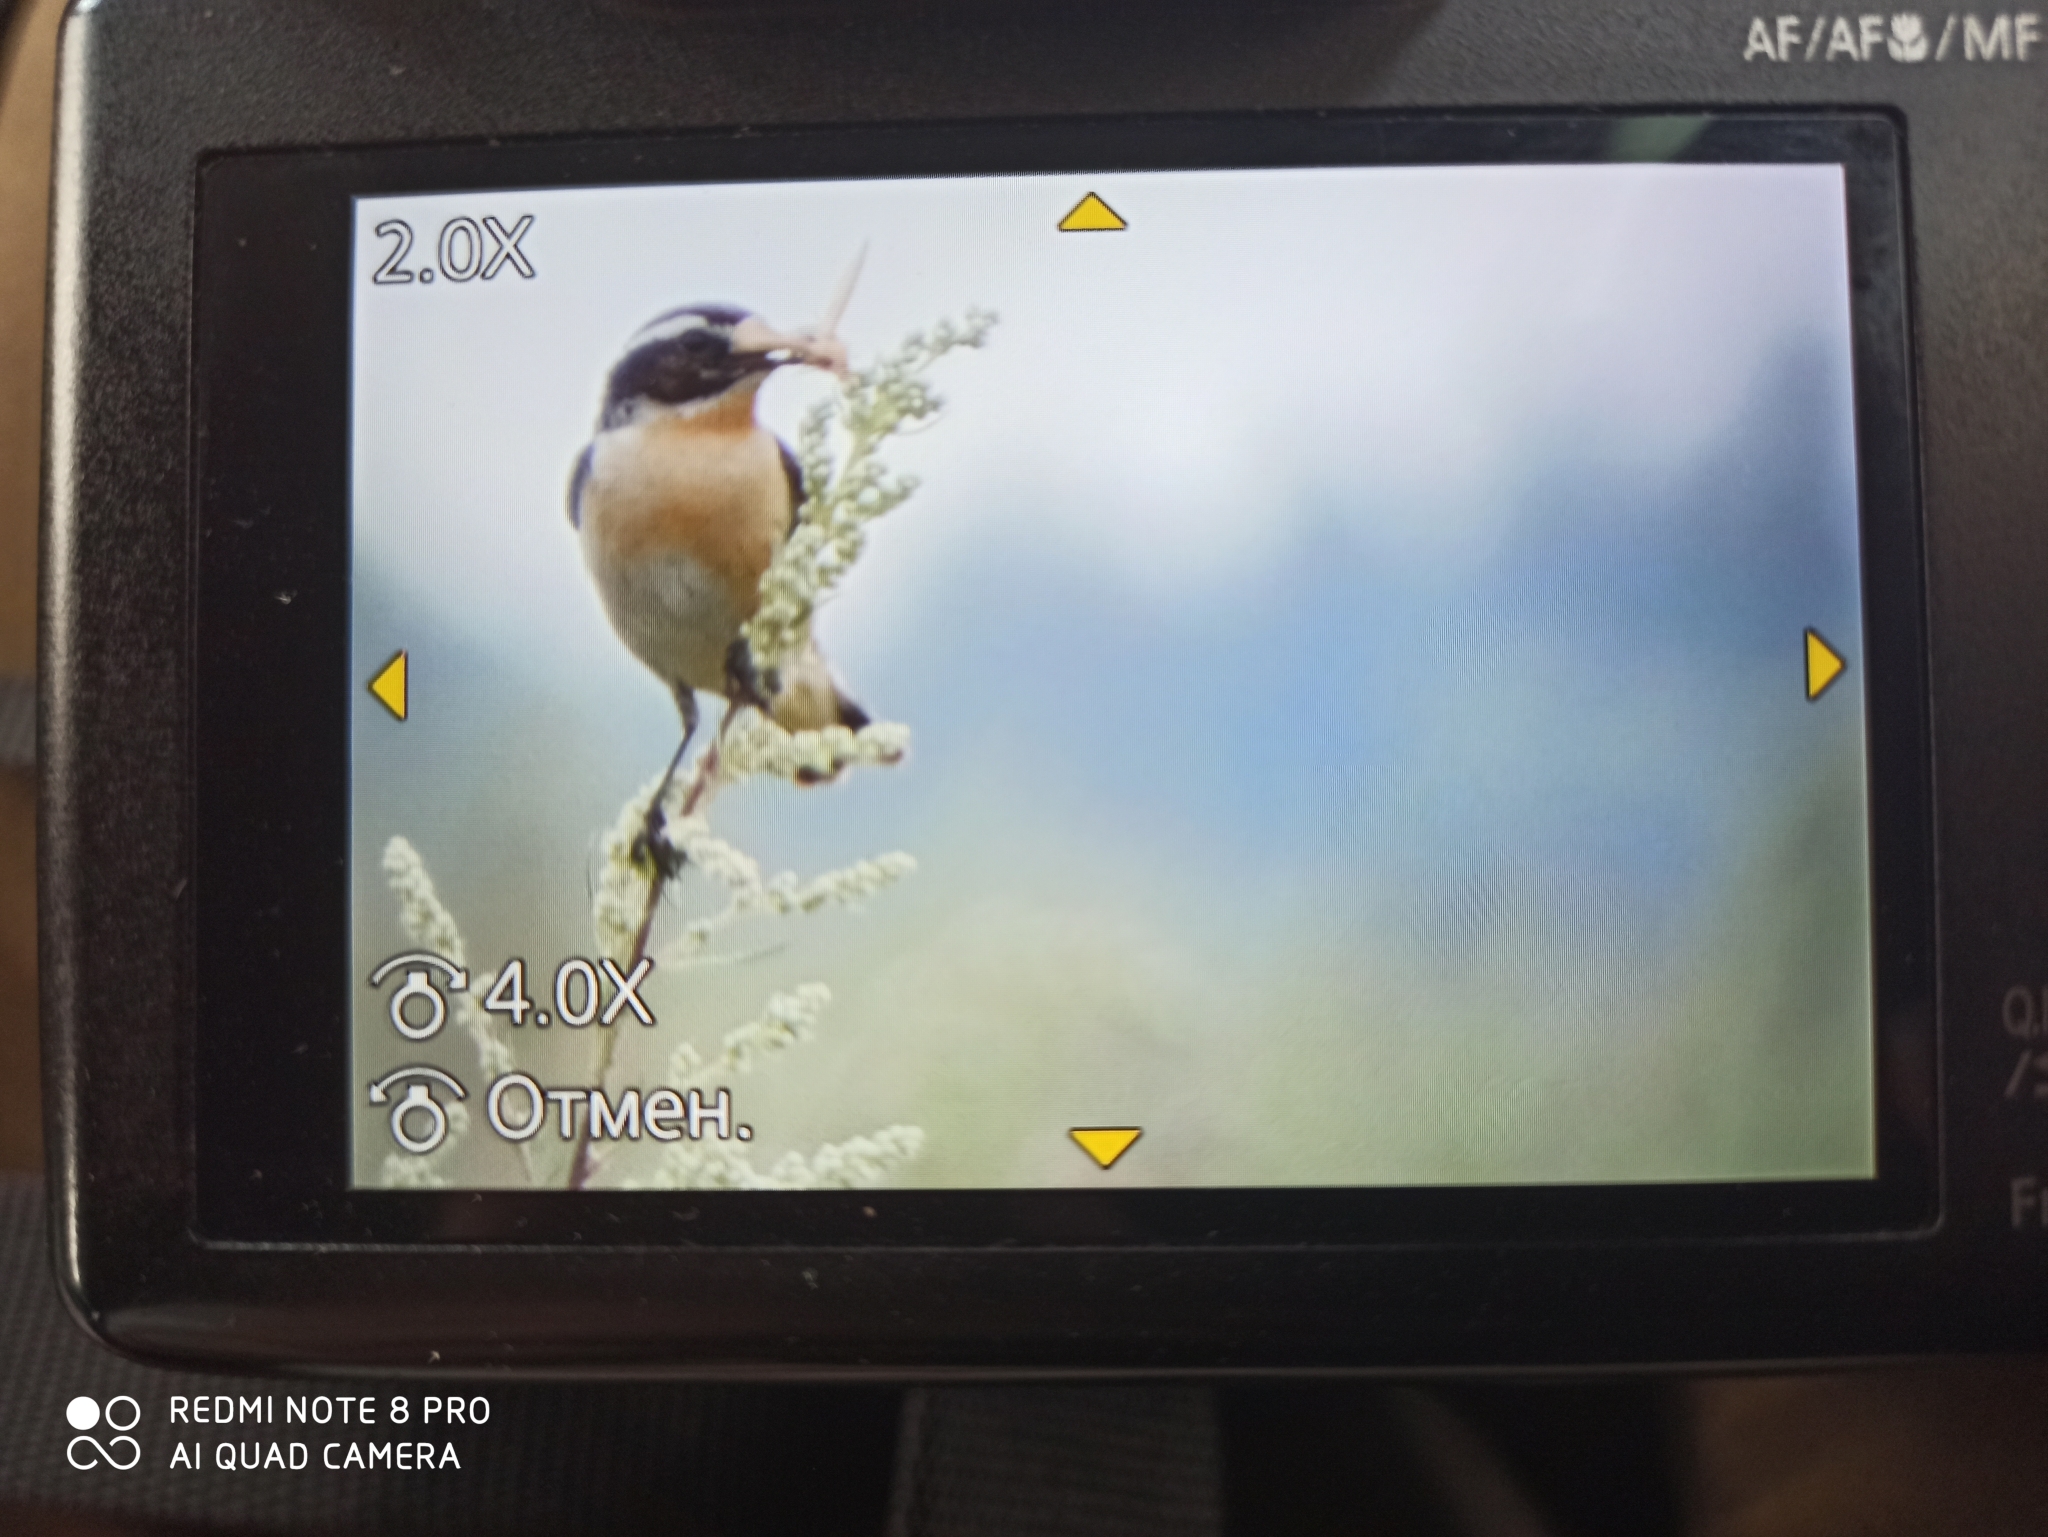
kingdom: Animalia
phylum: Chordata
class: Aves
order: Passeriformes
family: Muscicapidae
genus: Saxicola
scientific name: Saxicola rubetra
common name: Whinchat
